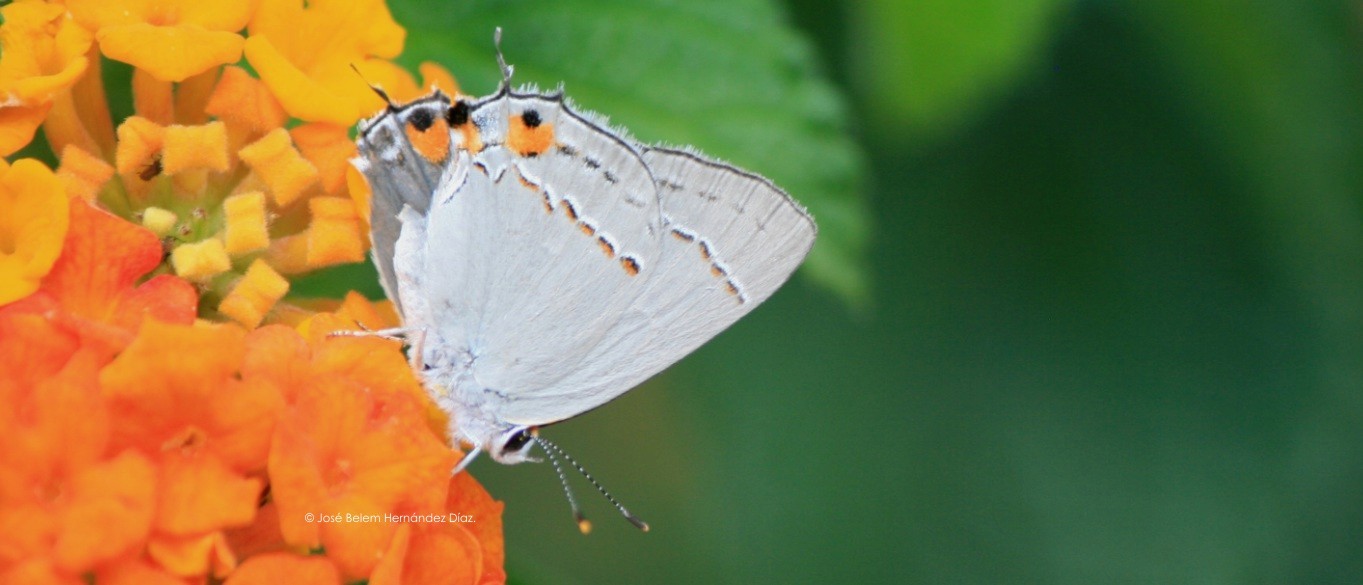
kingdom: Animalia
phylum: Arthropoda
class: Insecta
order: Lepidoptera
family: Lycaenidae
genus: Strymon
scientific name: Strymon melinus
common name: Gray hairstreak
